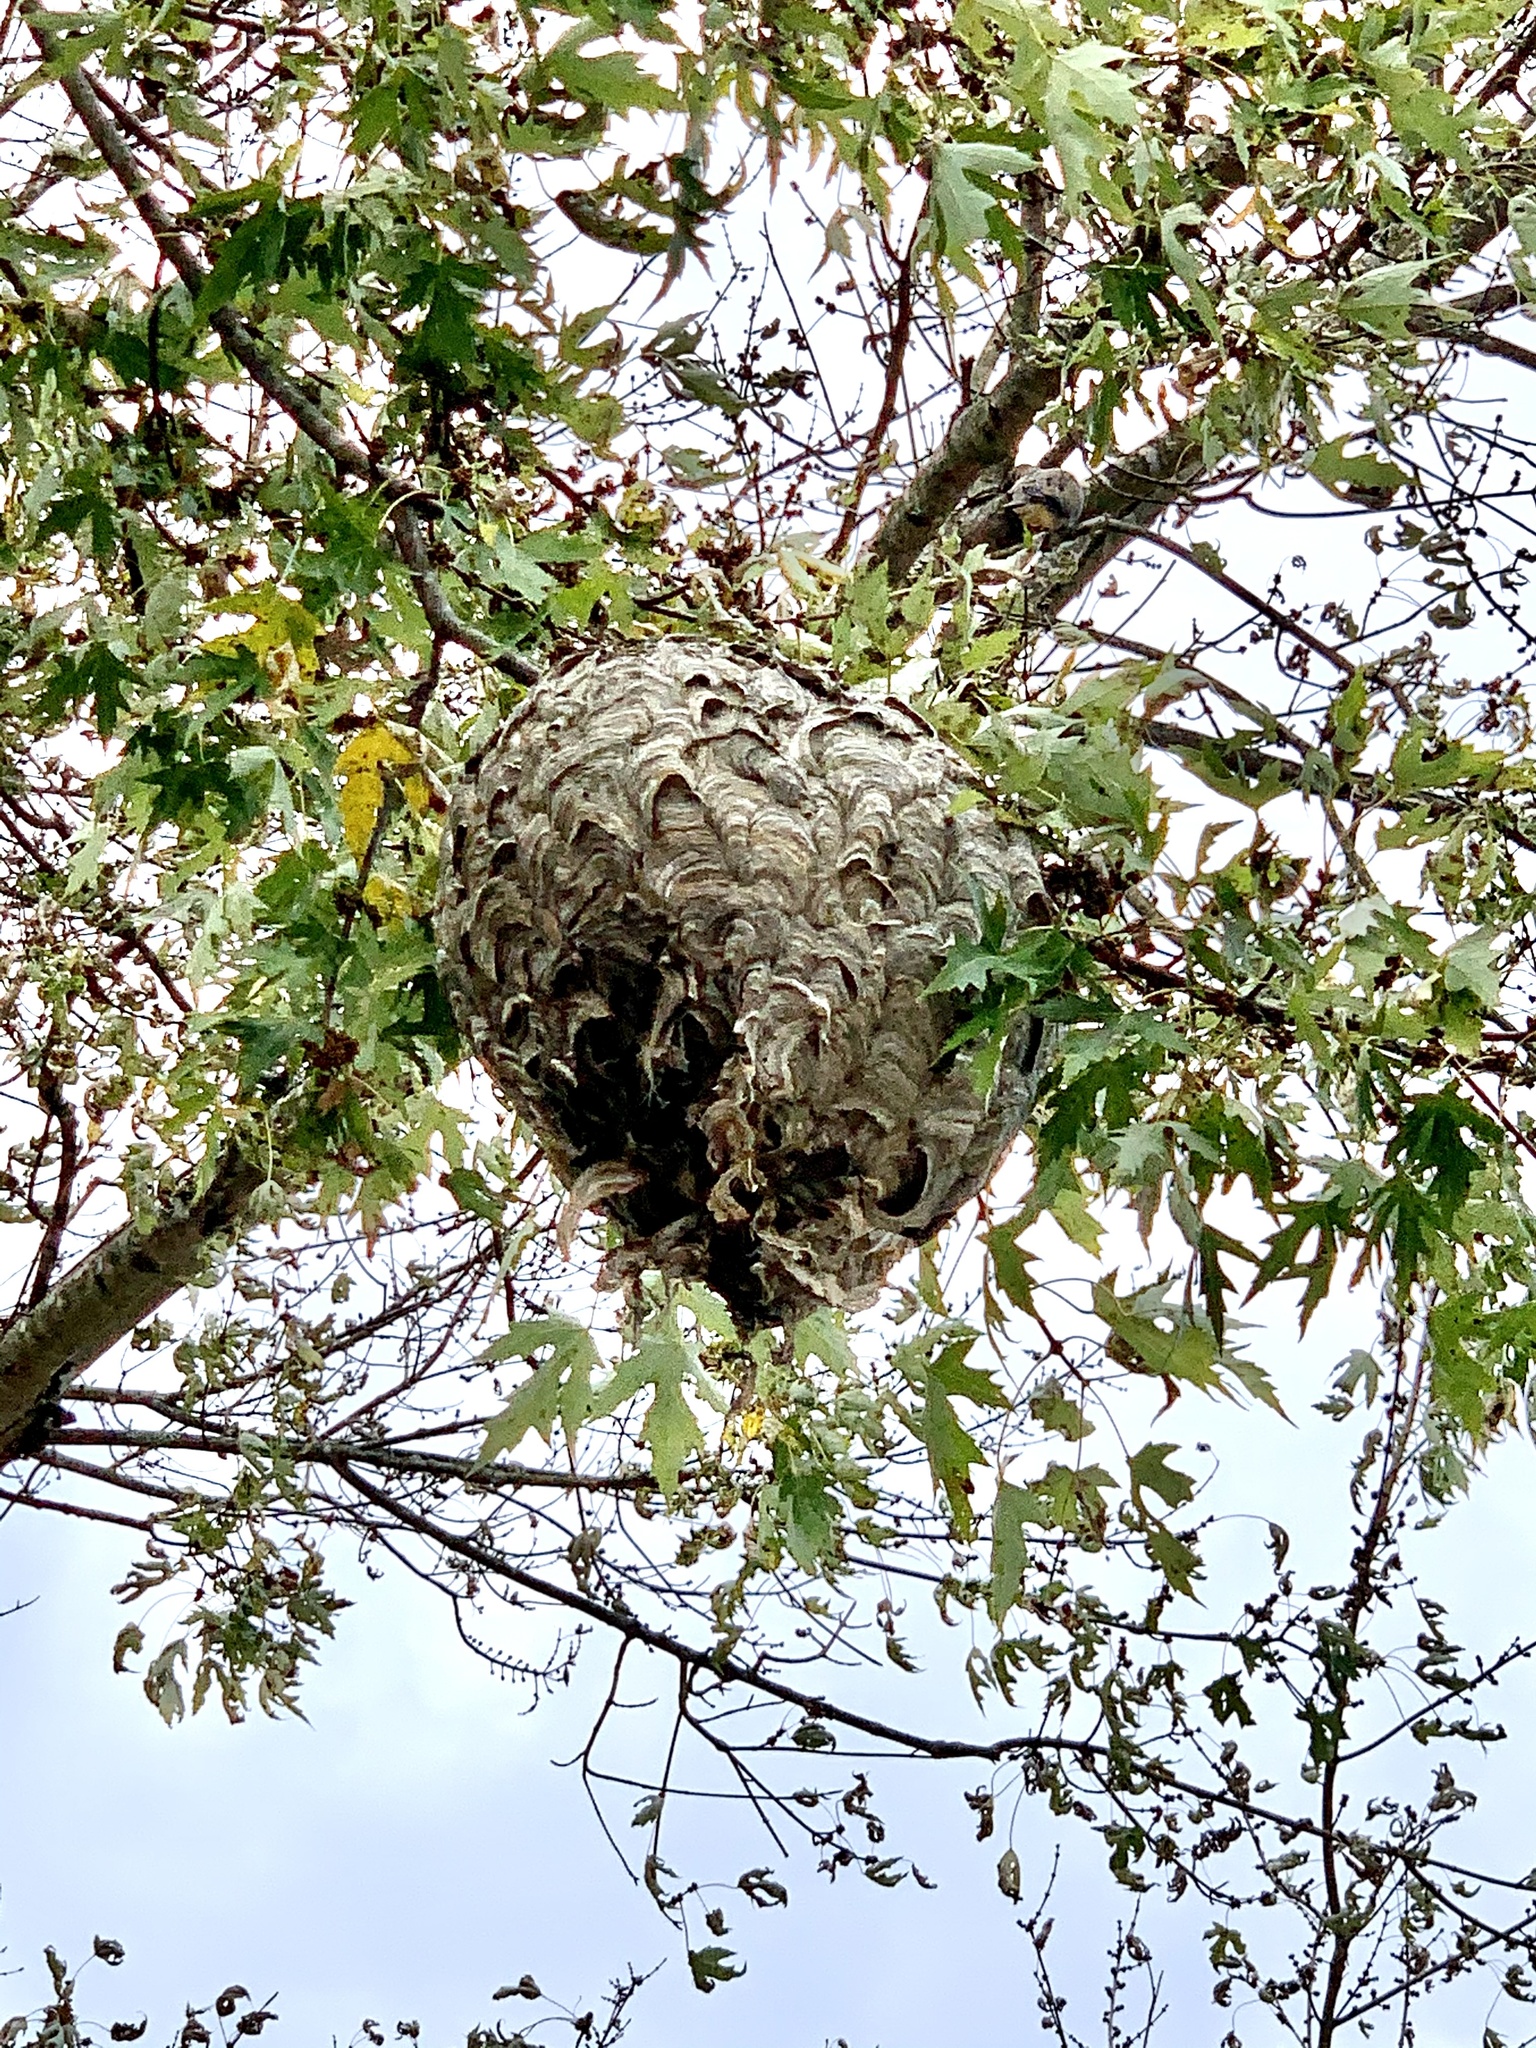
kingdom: Animalia
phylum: Arthropoda
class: Insecta
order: Hymenoptera
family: Vespidae
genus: Dolichovespula
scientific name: Dolichovespula maculata
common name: Bald-faced hornet
